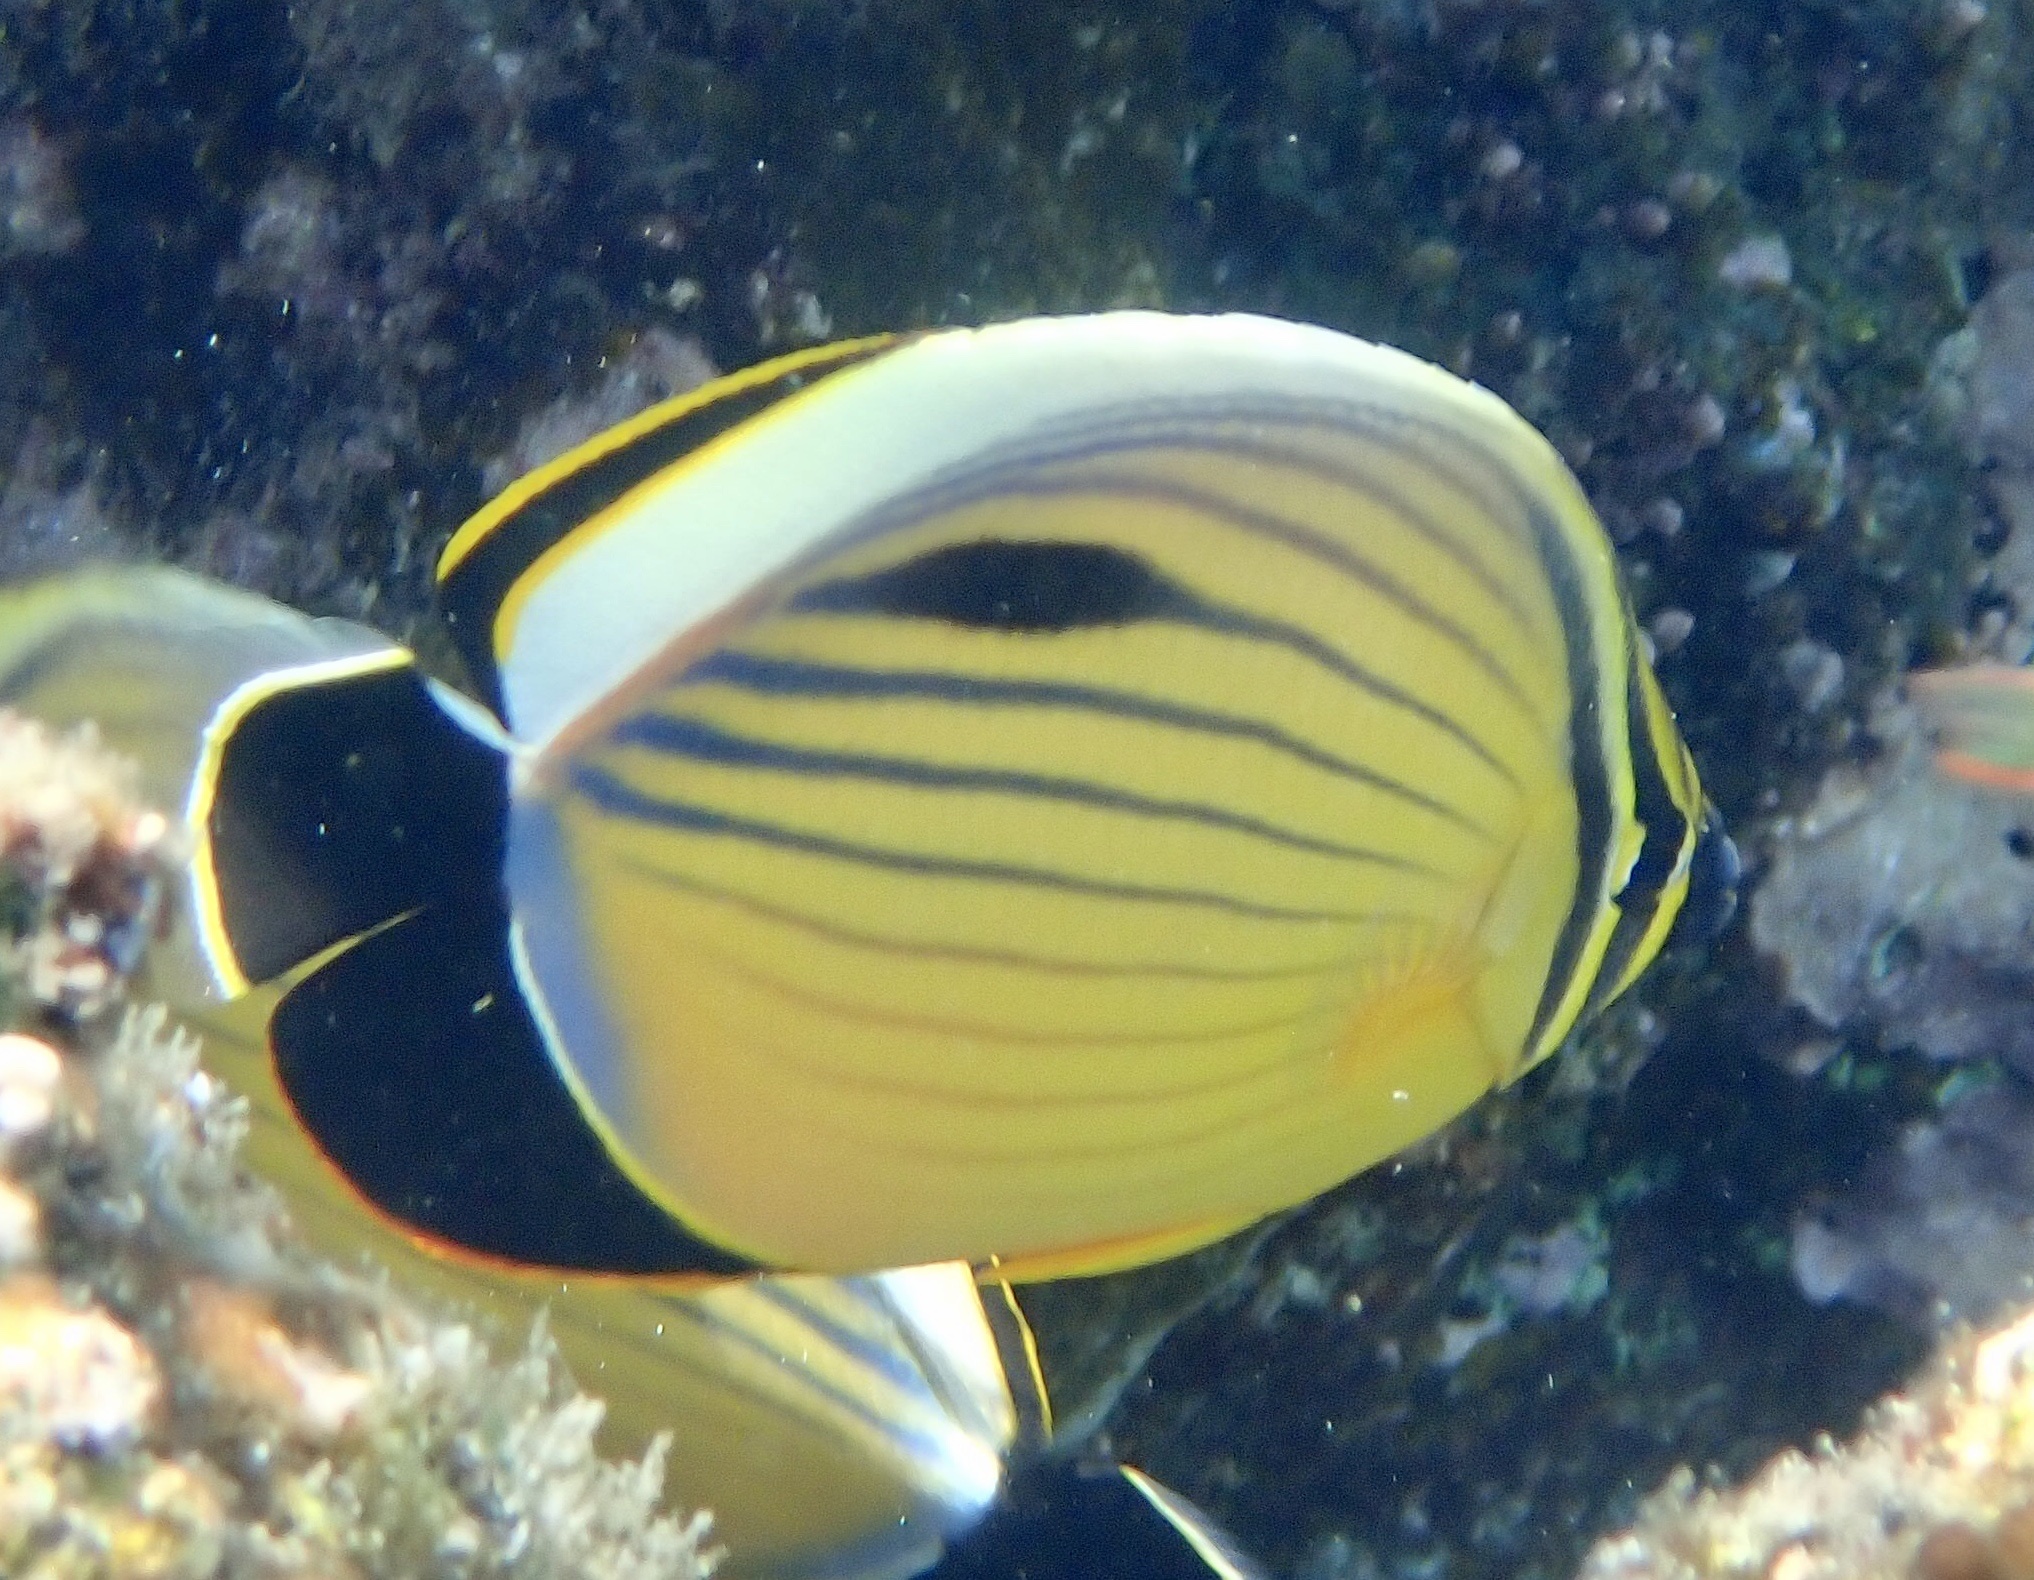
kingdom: Animalia
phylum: Chordata
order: Perciformes
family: Chaetodontidae
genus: Chaetodon
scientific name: Chaetodon austriacus
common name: Exquisite butterflyfish
